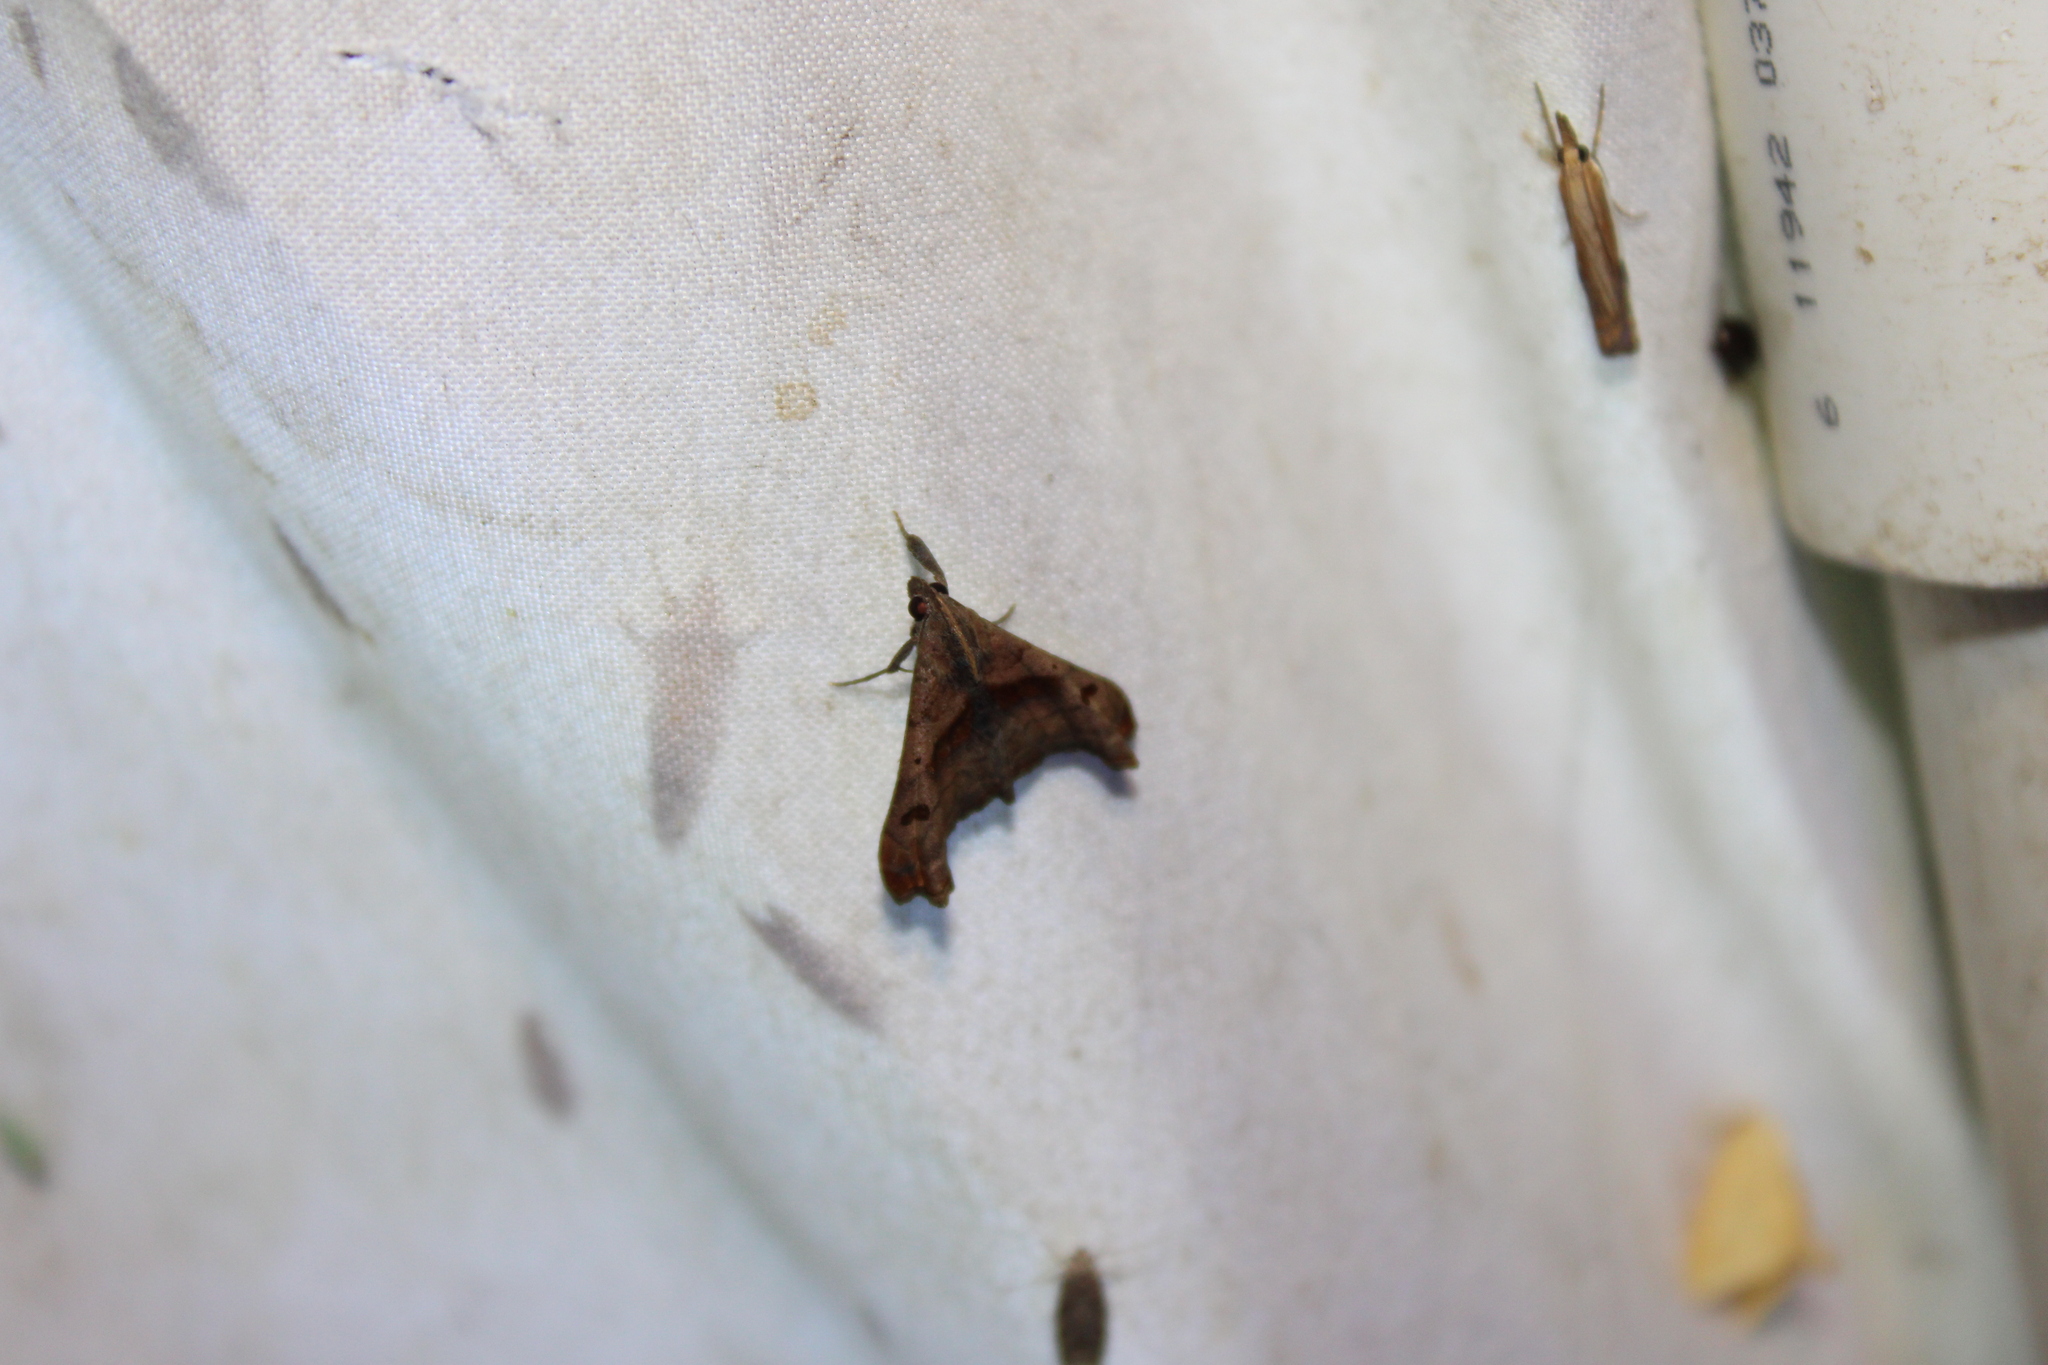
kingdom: Animalia
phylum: Arthropoda
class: Insecta
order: Lepidoptera
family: Erebidae
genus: Palthis
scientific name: Palthis angulalis
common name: Dark-spotted palthis moth
